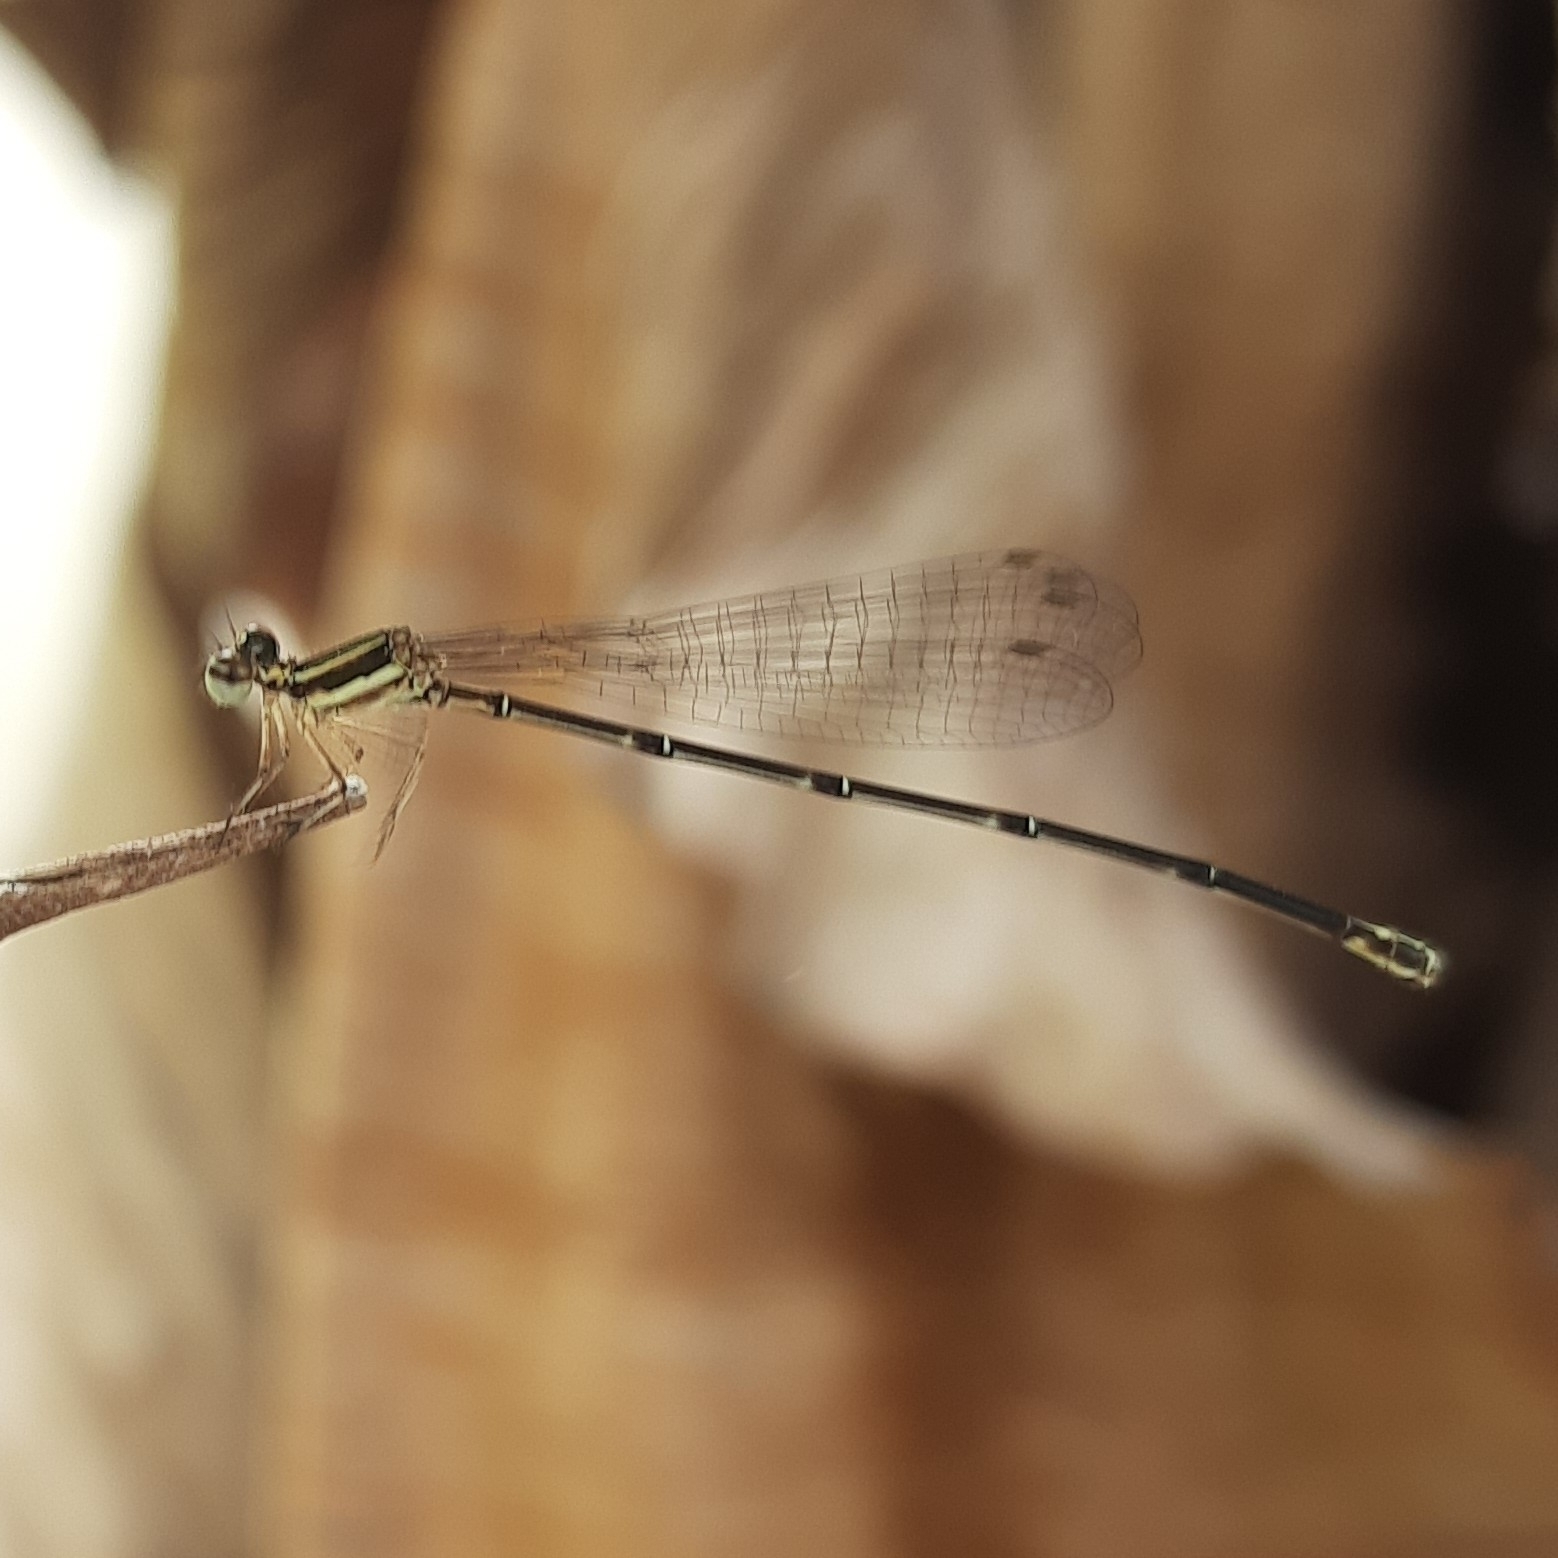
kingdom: Animalia
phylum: Arthropoda
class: Insecta
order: Odonata
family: Platycnemididae
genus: Prodasineura
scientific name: Prodasineura verticalis
